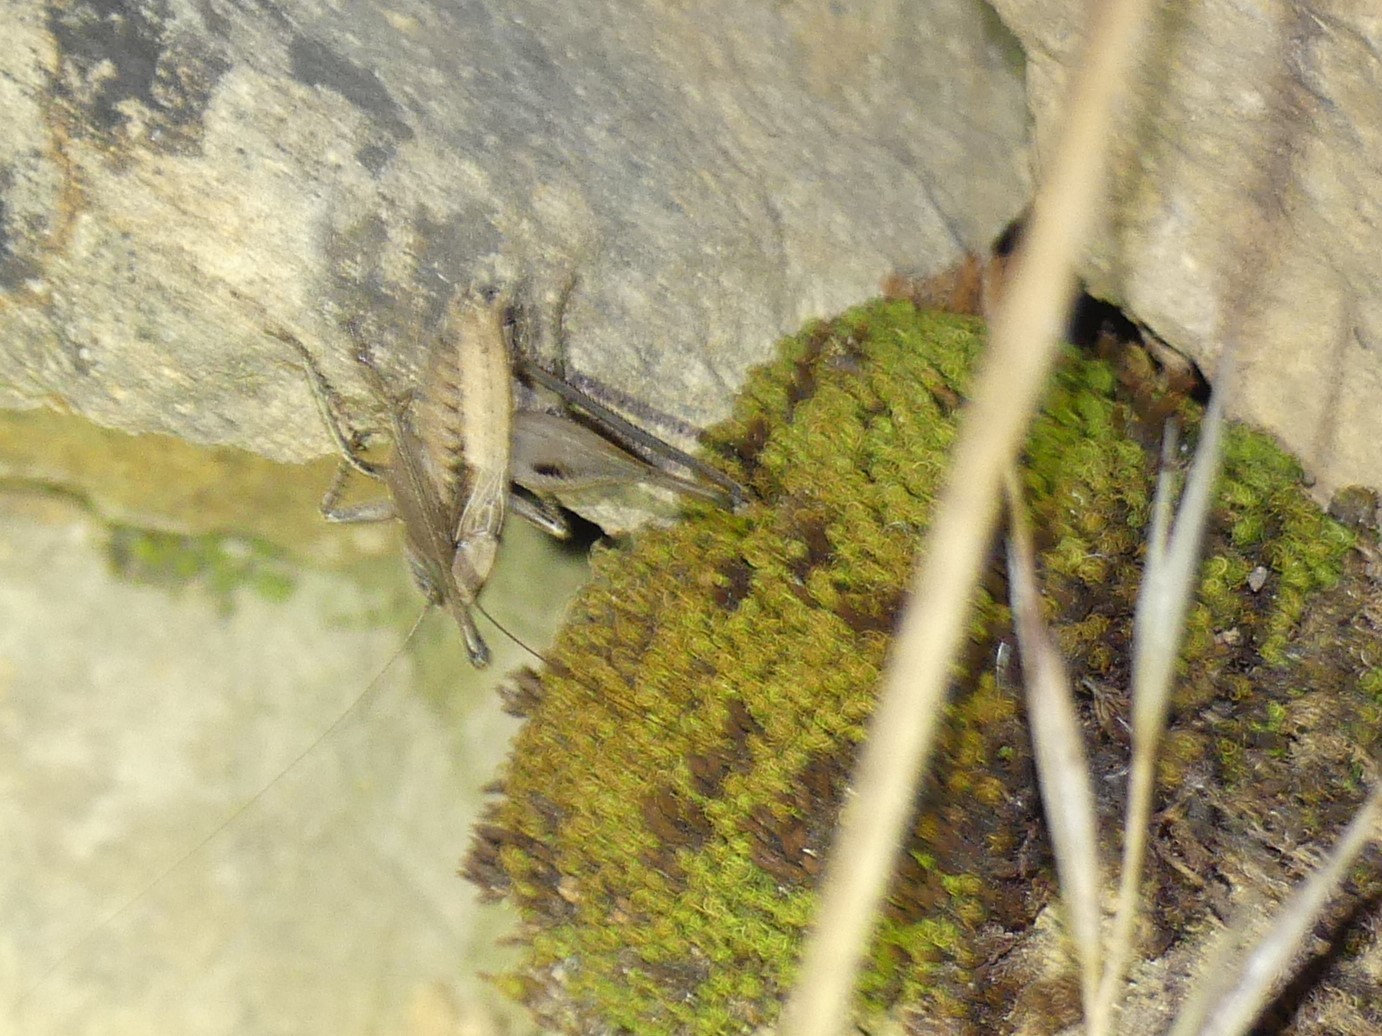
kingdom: Animalia
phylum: Arthropoda
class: Insecta
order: Orthoptera
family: Tettigoniidae
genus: Incertana
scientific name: Incertana incerta
